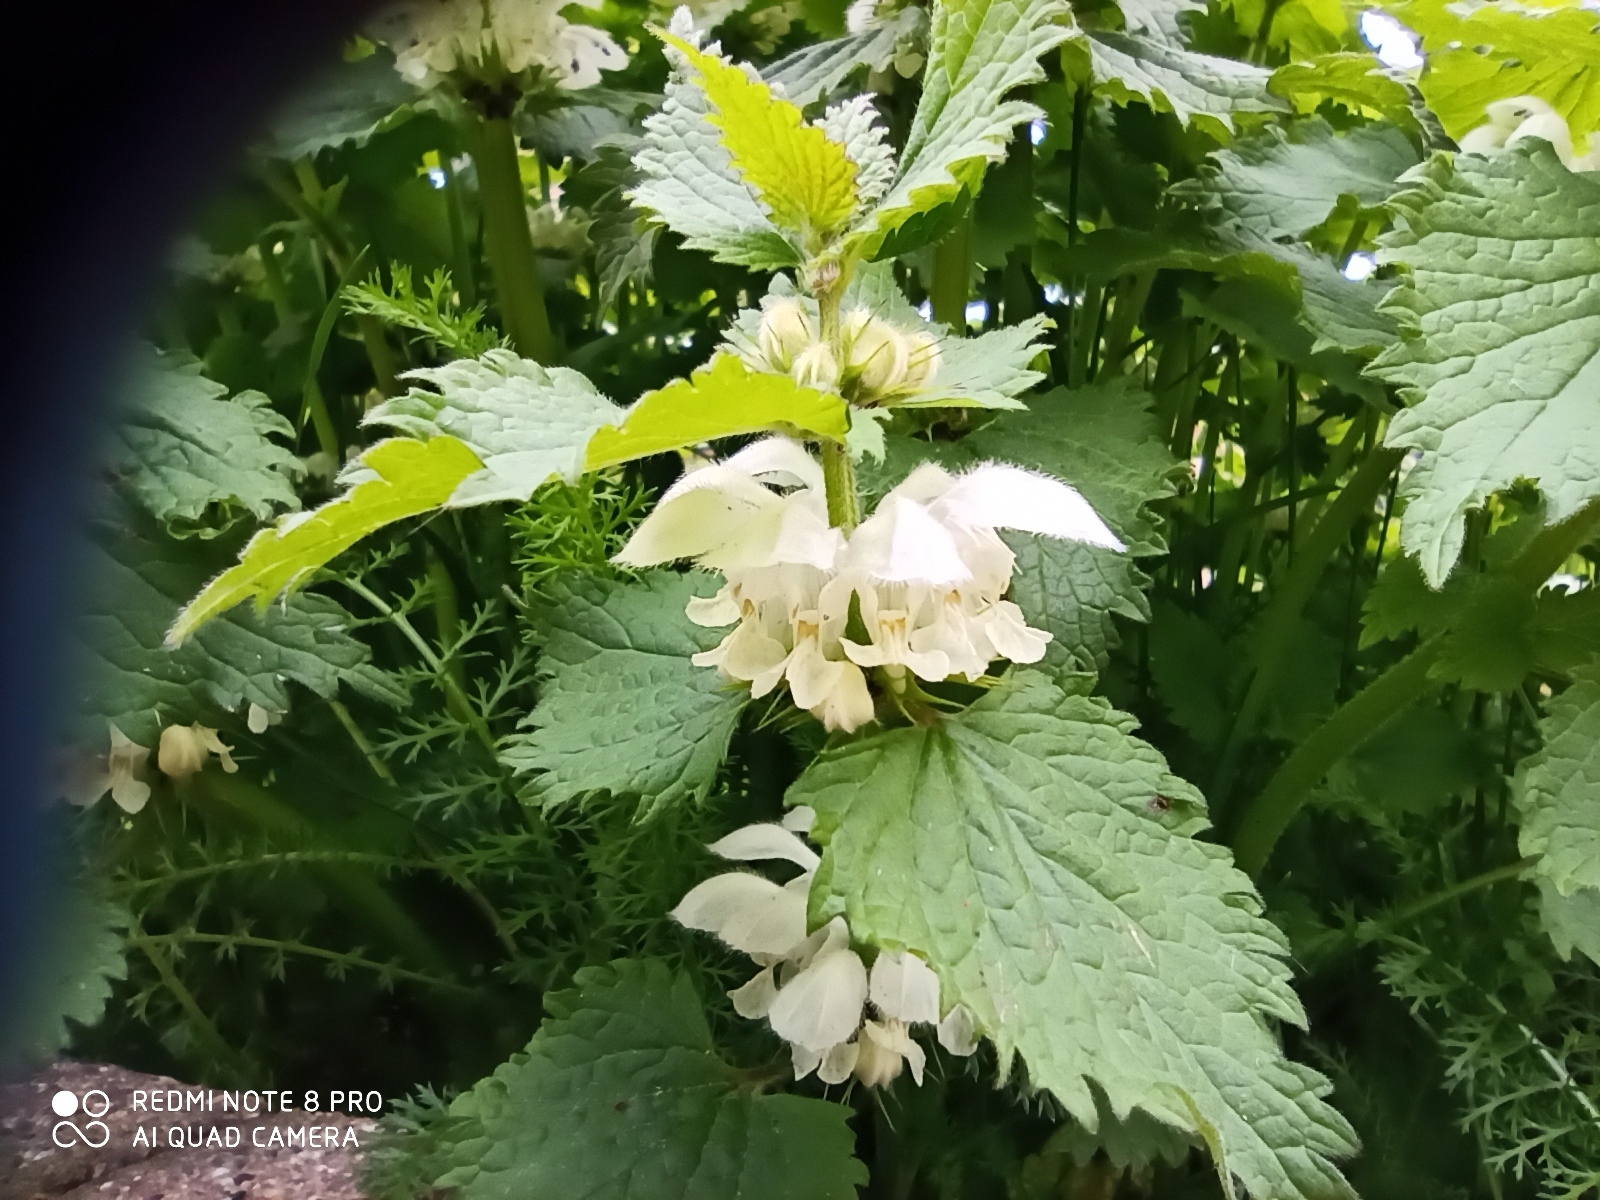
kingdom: Plantae
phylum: Tracheophyta
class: Magnoliopsida
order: Lamiales
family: Lamiaceae
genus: Lamium
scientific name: Lamium album
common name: White dead-nettle
